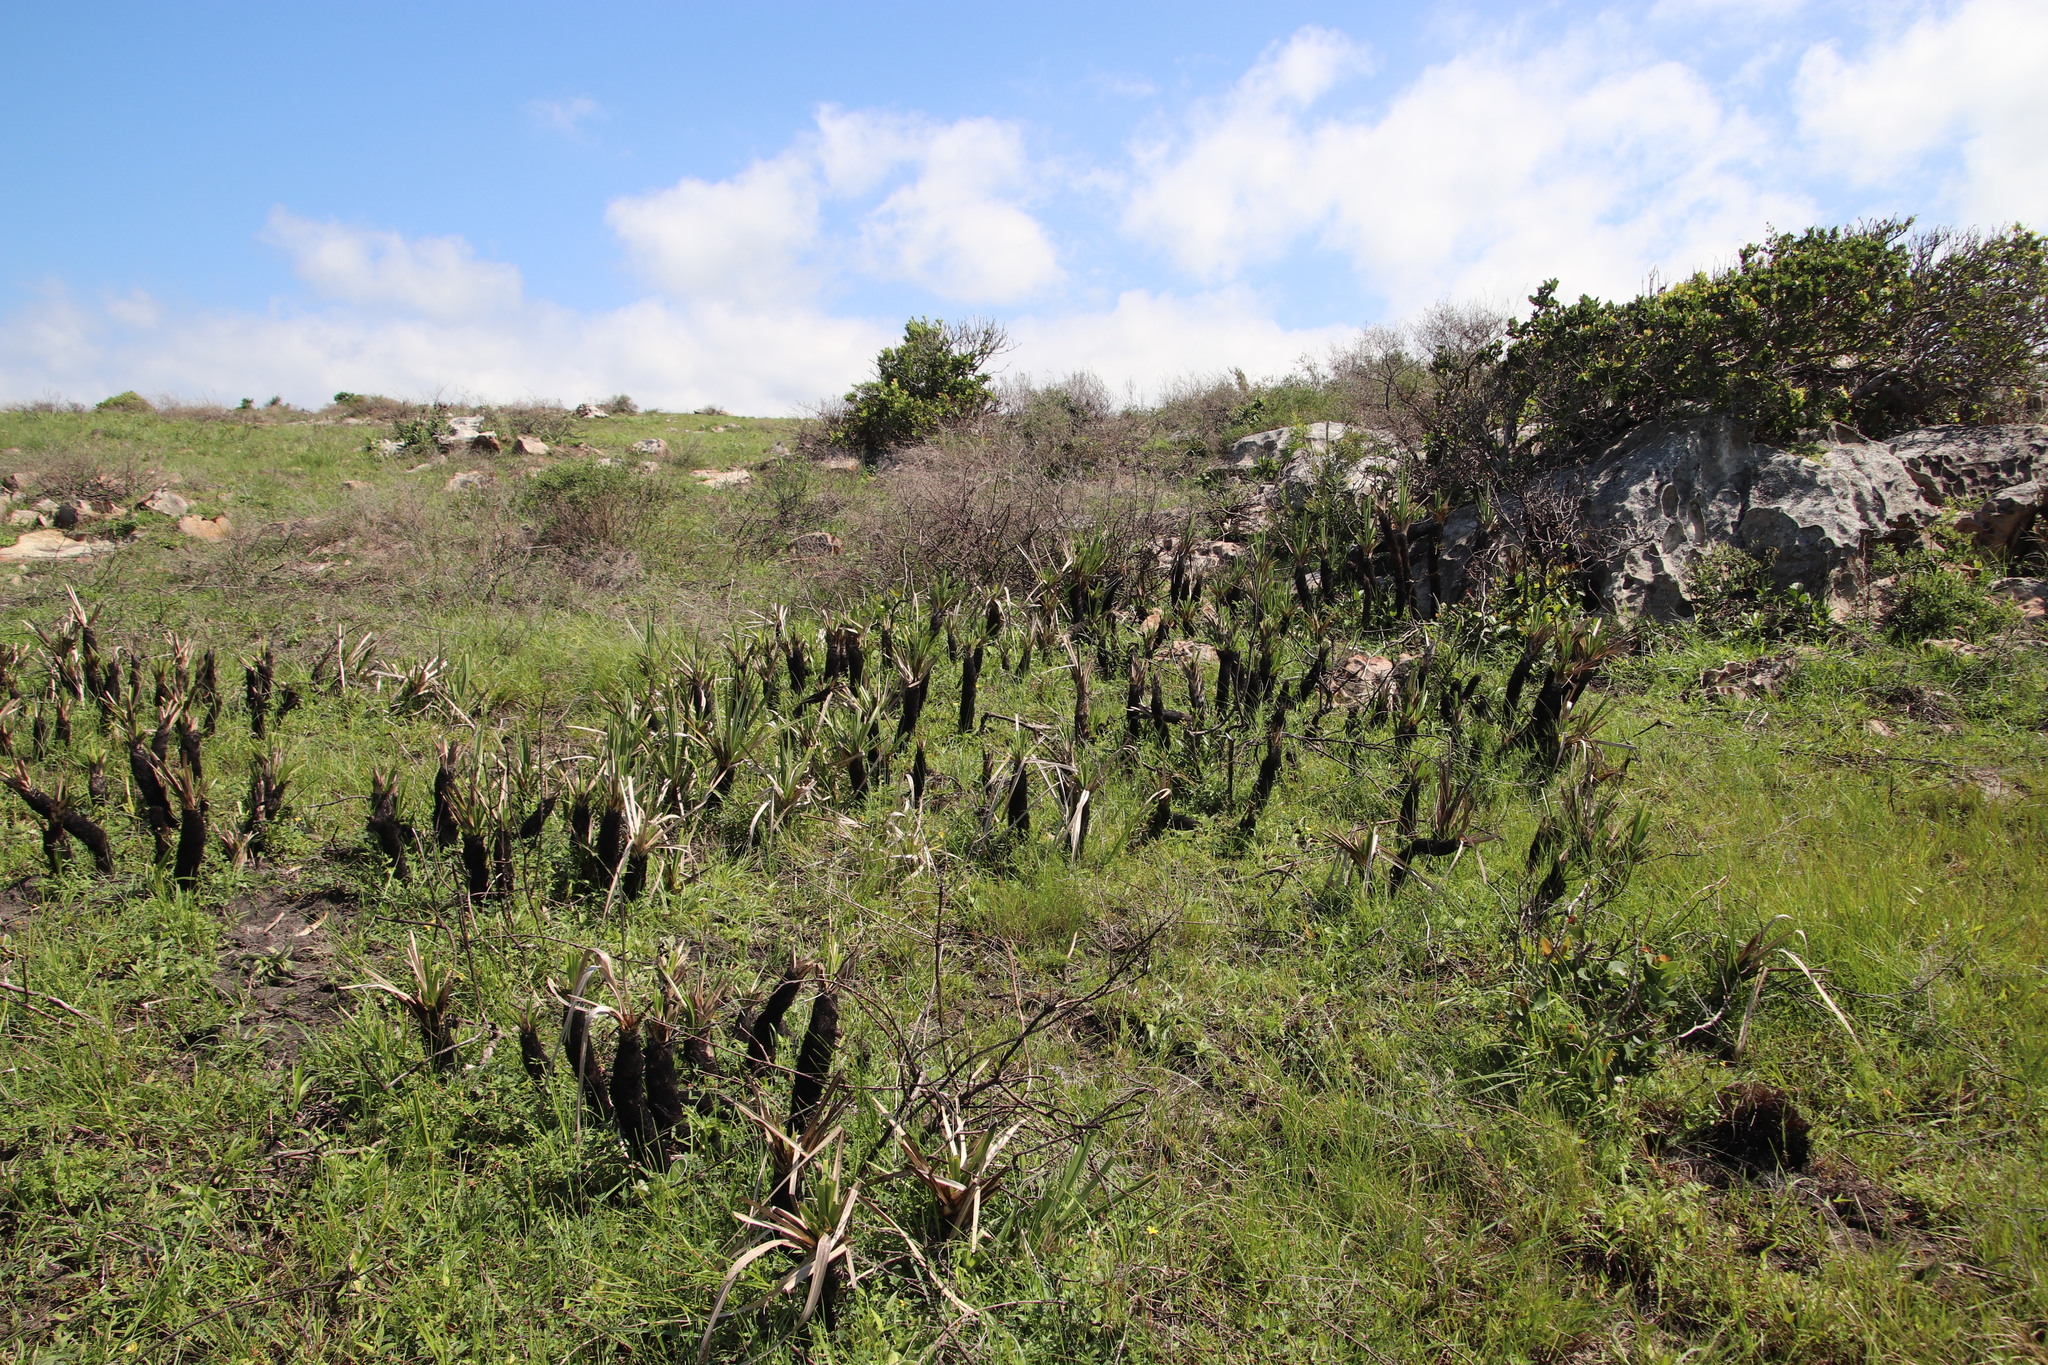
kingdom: Plantae
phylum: Tracheophyta
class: Liliopsida
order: Poales
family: Thurniaceae
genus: Prionium
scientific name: Prionium serratum
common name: Palmiet
